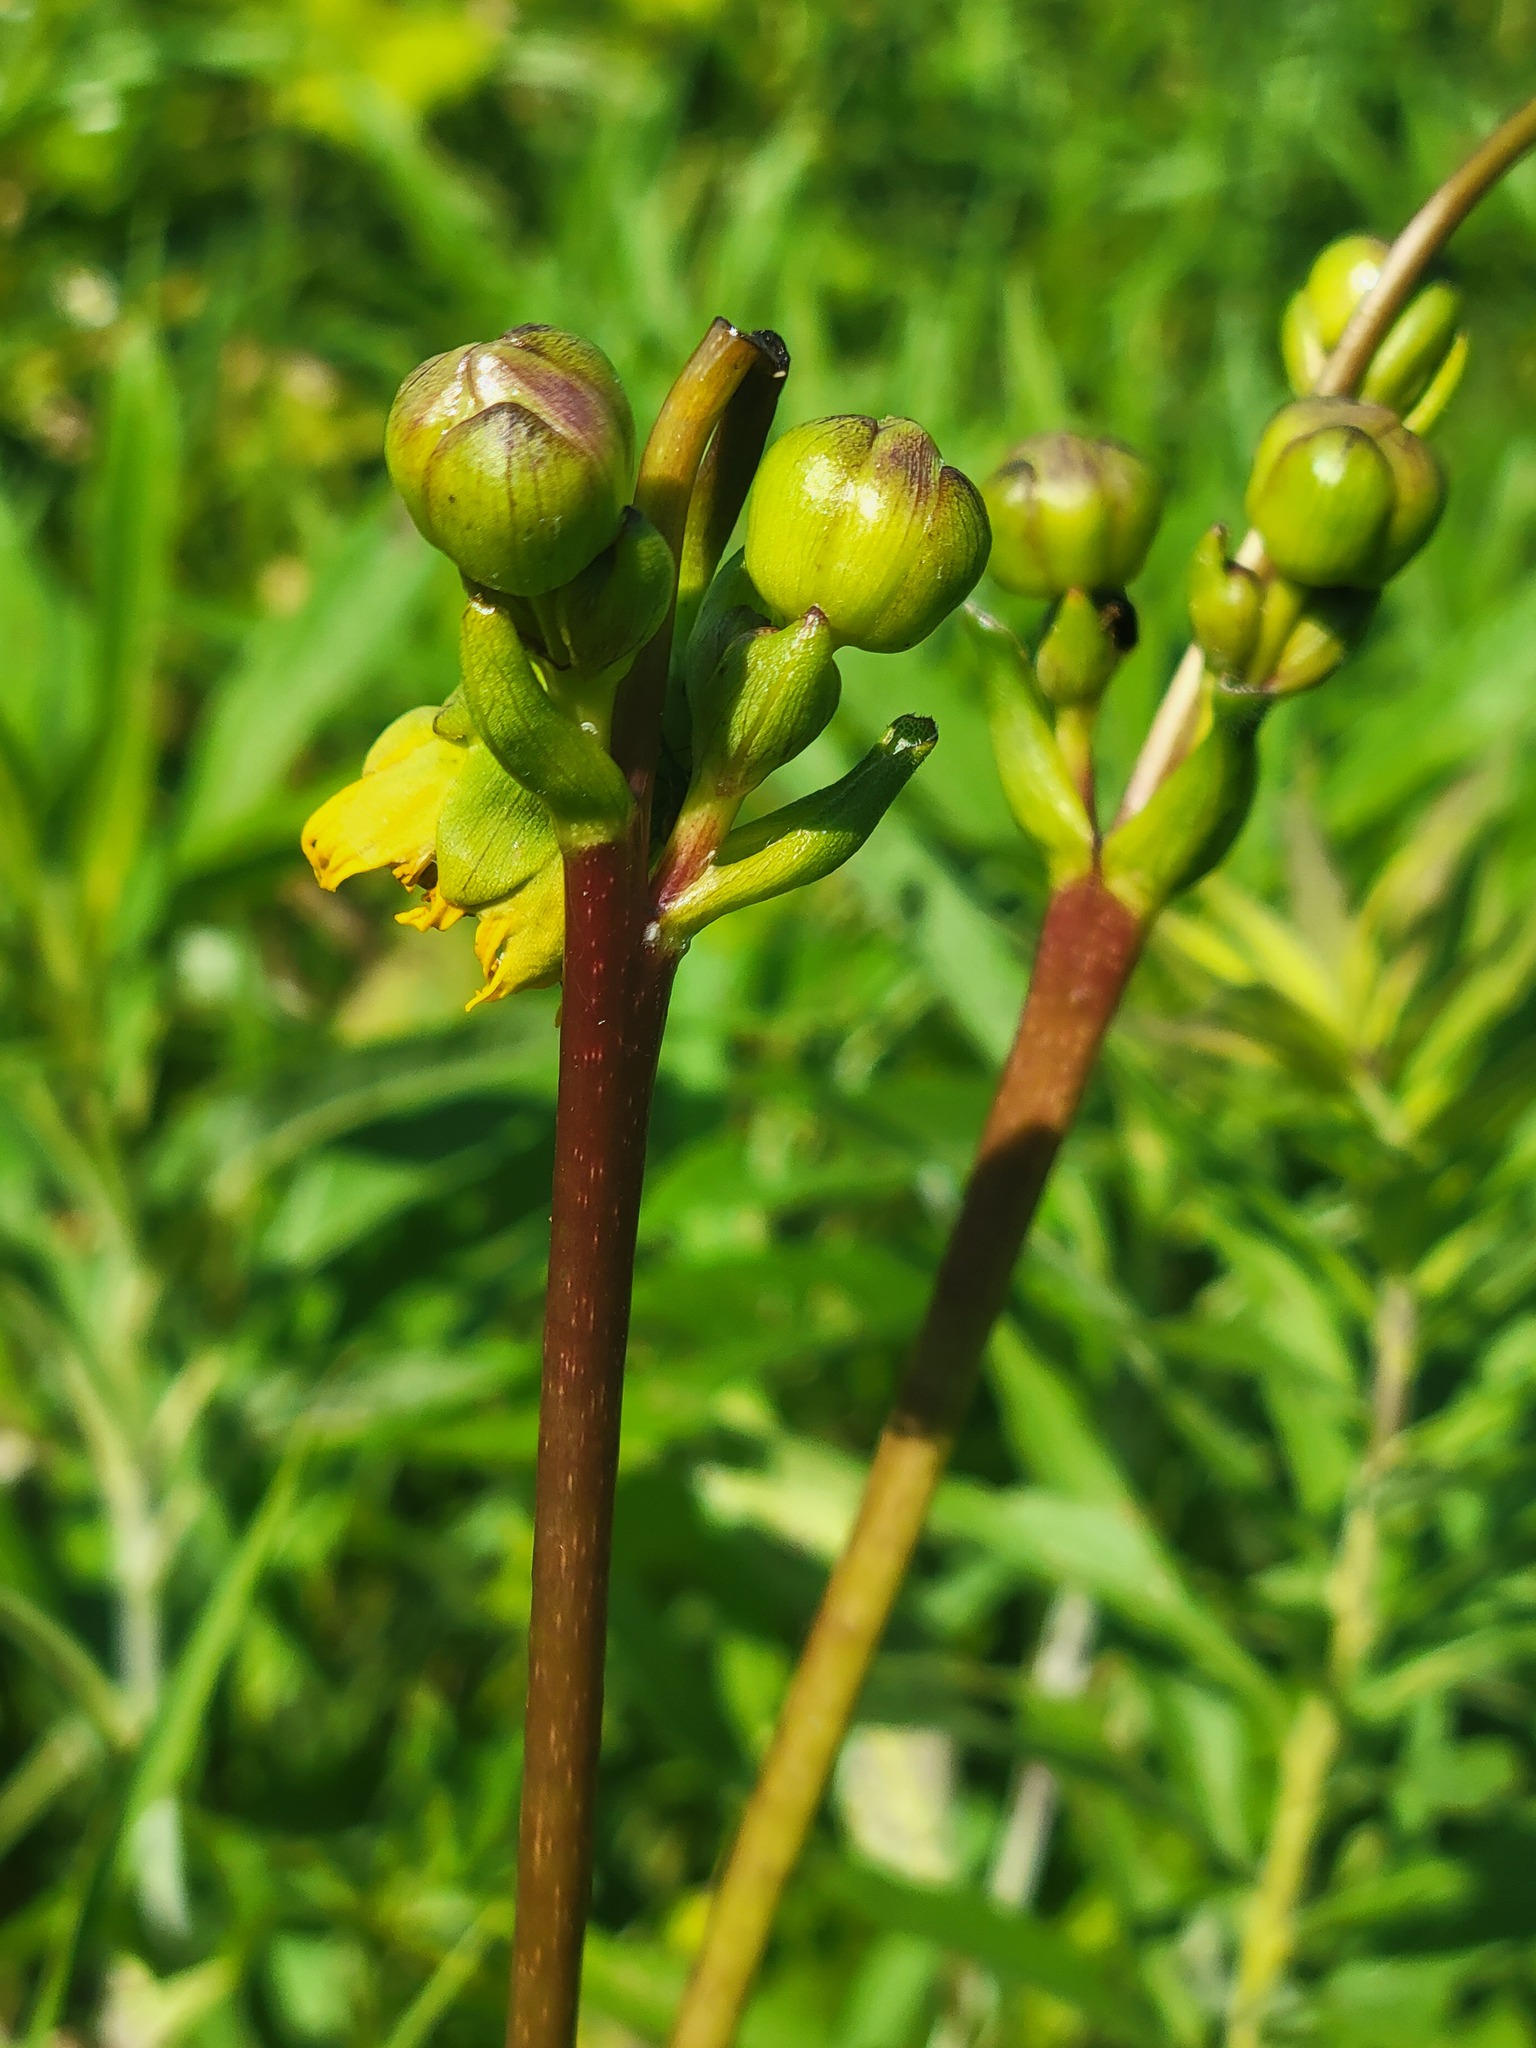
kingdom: Plantae
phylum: Tracheophyta
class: Magnoliopsida
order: Asterales
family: Asteraceae
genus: Silphium
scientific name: Silphium terebinthinaceum
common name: Basal-leaf rosinweed
